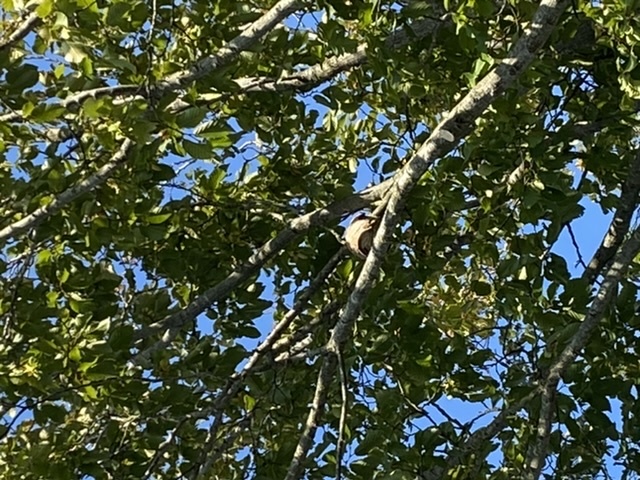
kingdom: Animalia
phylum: Arthropoda
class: Insecta
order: Hymenoptera
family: Vespidae
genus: Vespa
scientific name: Vespa velutina
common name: Asian hornet
